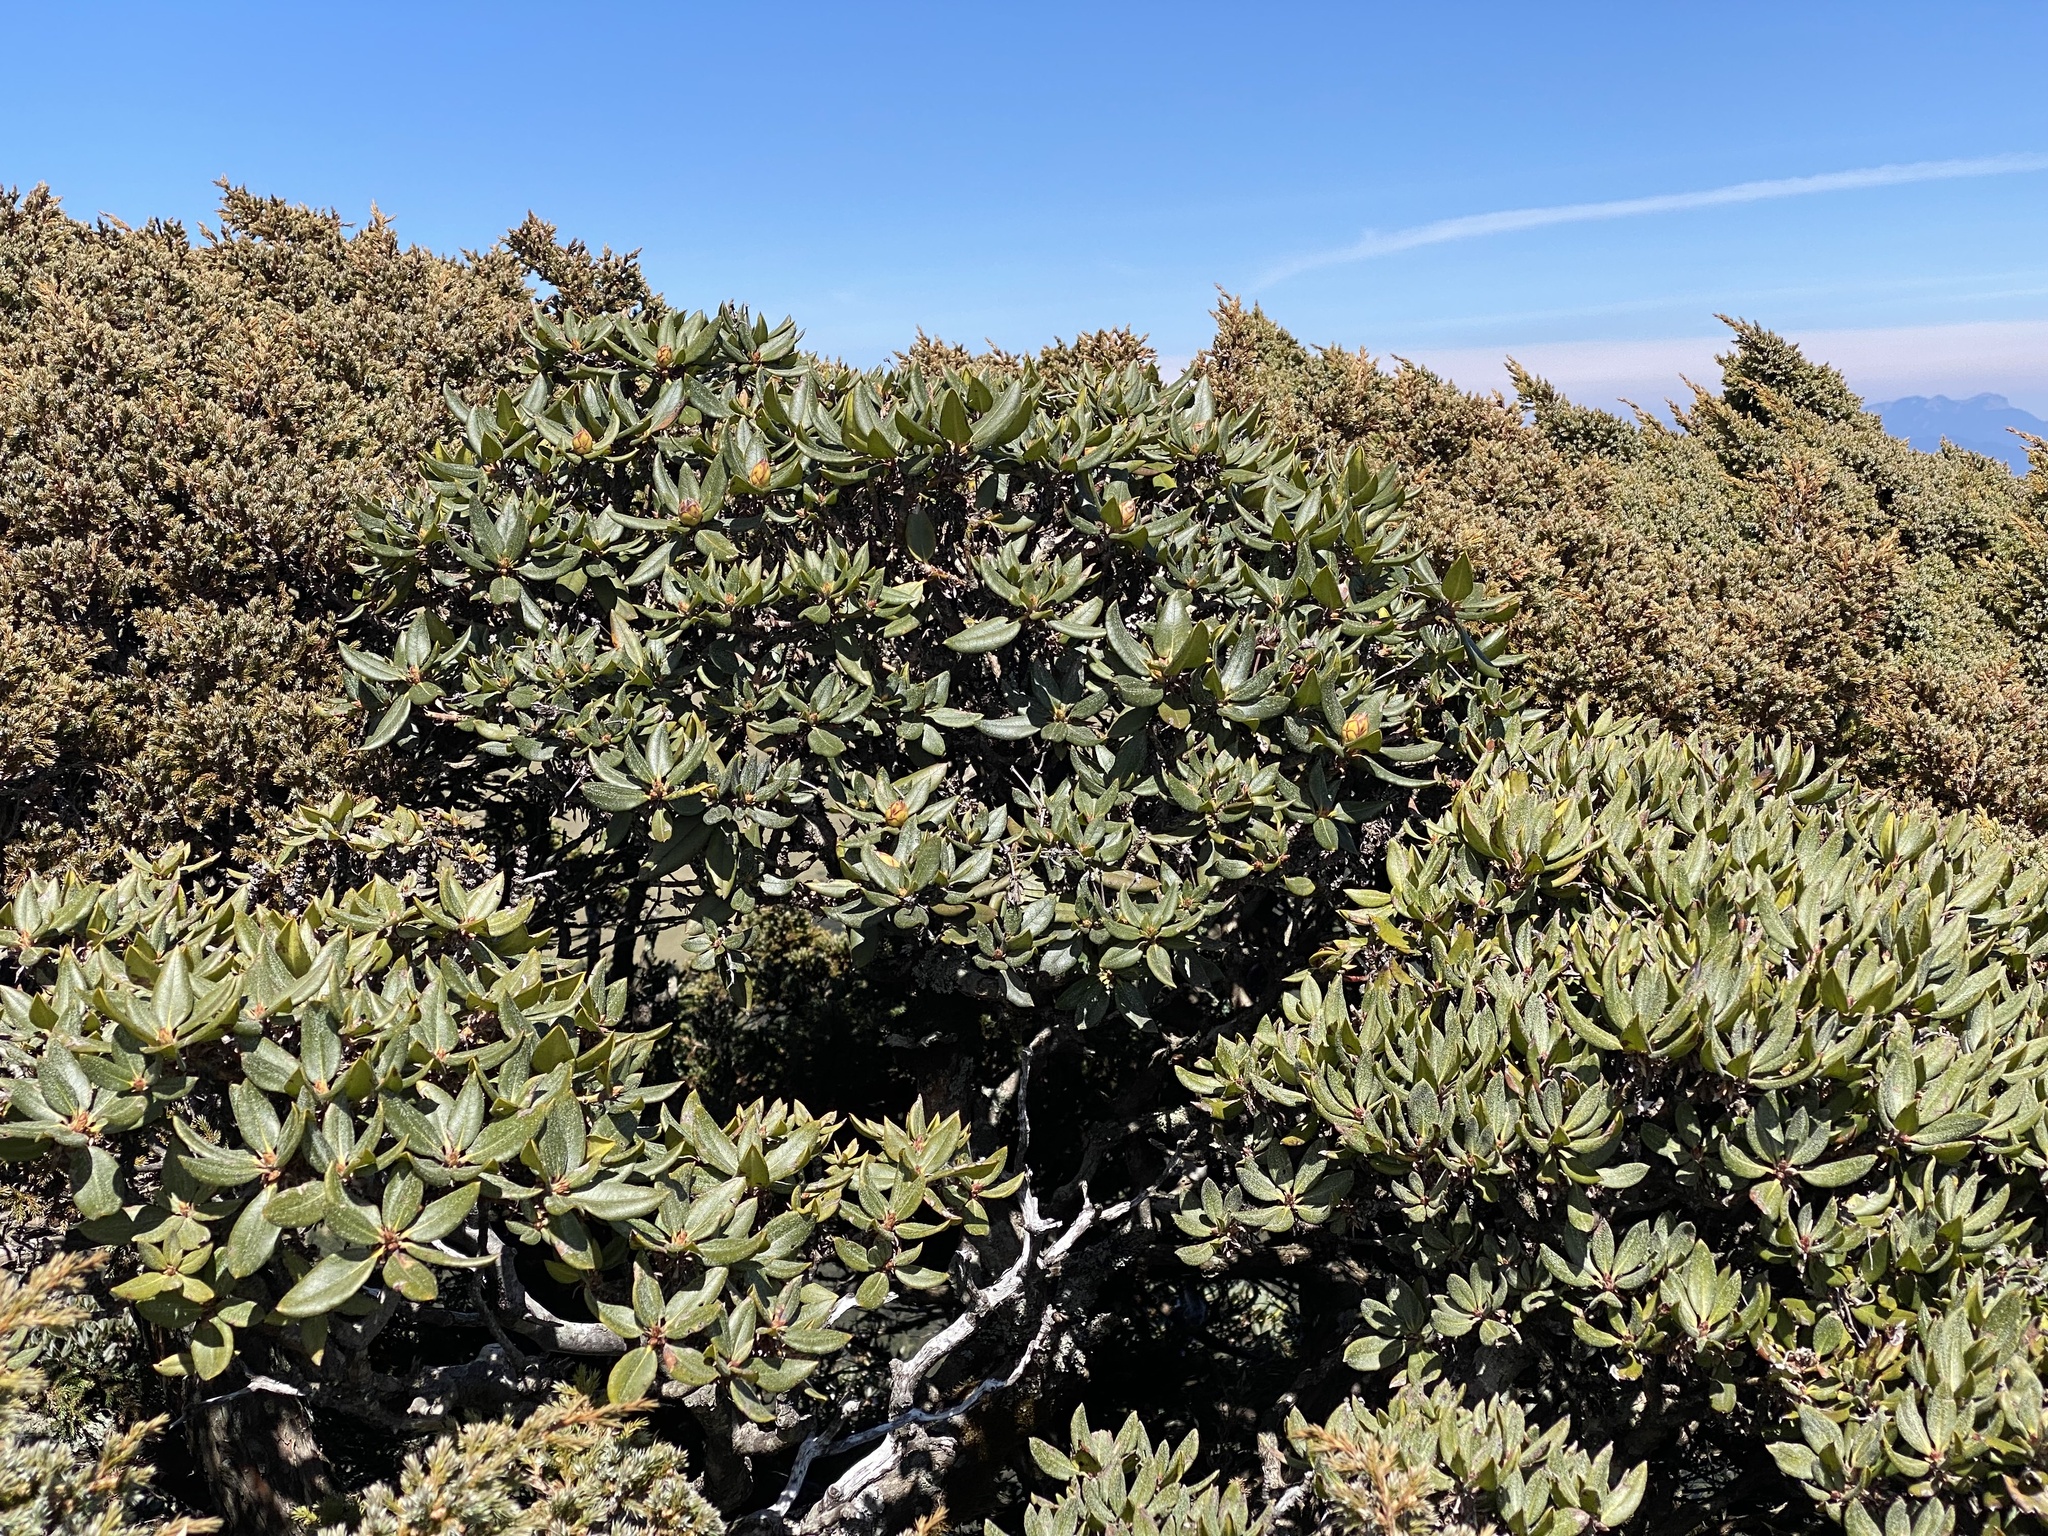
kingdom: Plantae
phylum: Tracheophyta
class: Magnoliopsida
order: Ericales
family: Ericaceae
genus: Rhododendron
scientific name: Rhododendron pseudochrysanthum
